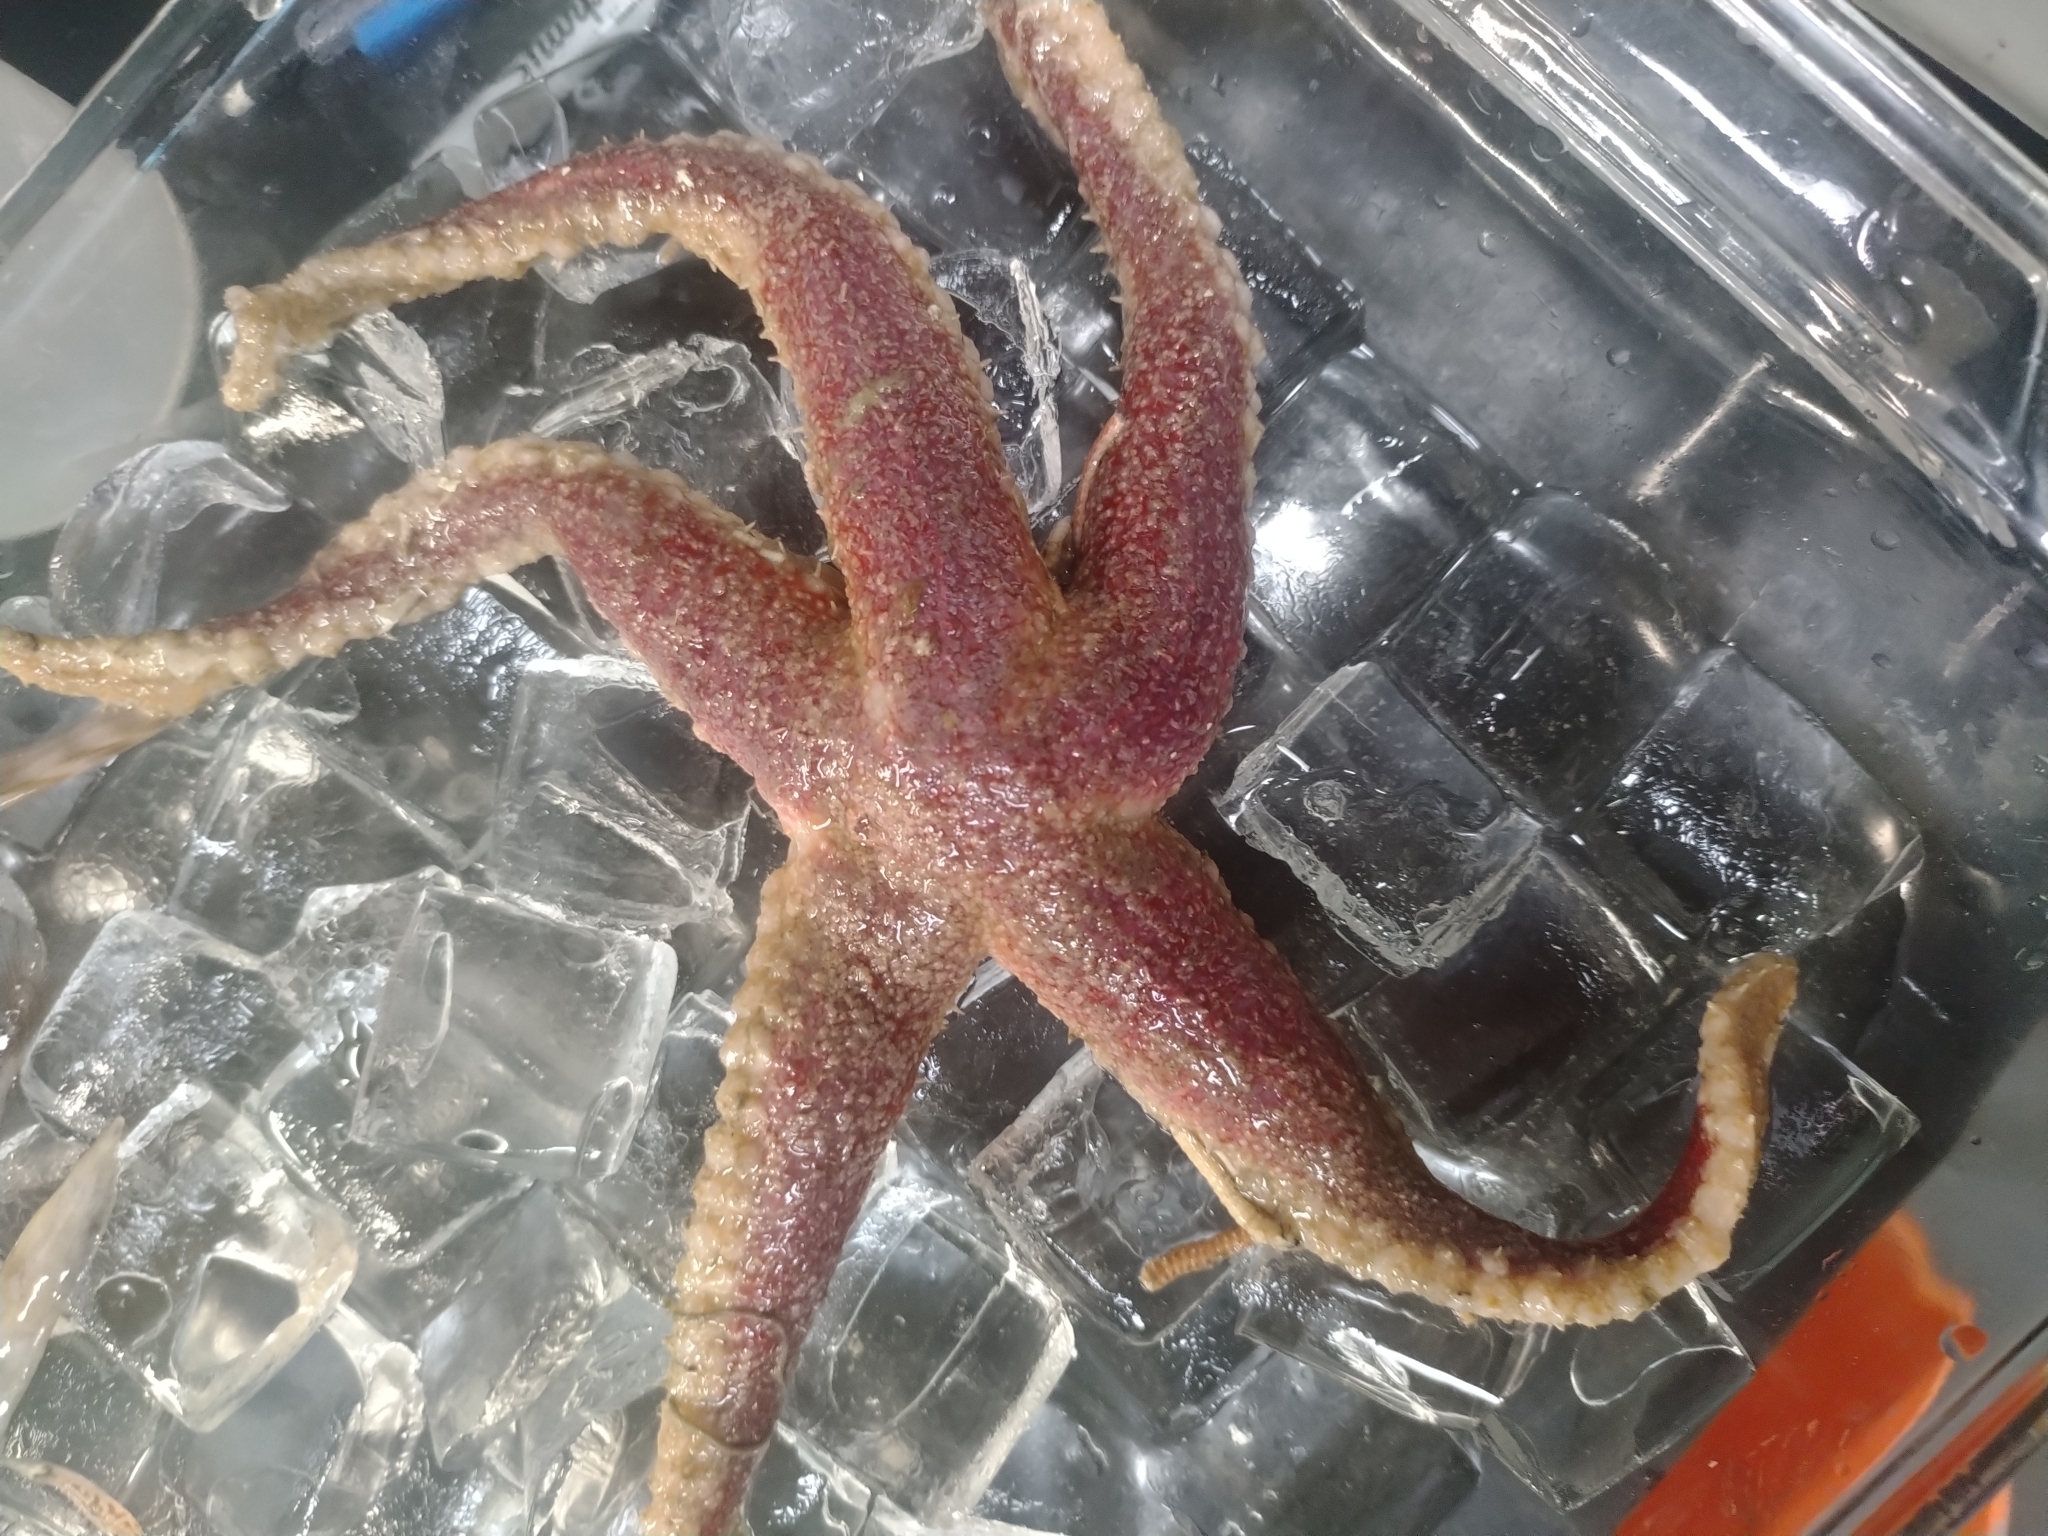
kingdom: Animalia
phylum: Echinodermata
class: Asteroidea
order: Forcipulatida
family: Asteriidae
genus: Urasterias
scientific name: Urasterias lincki
